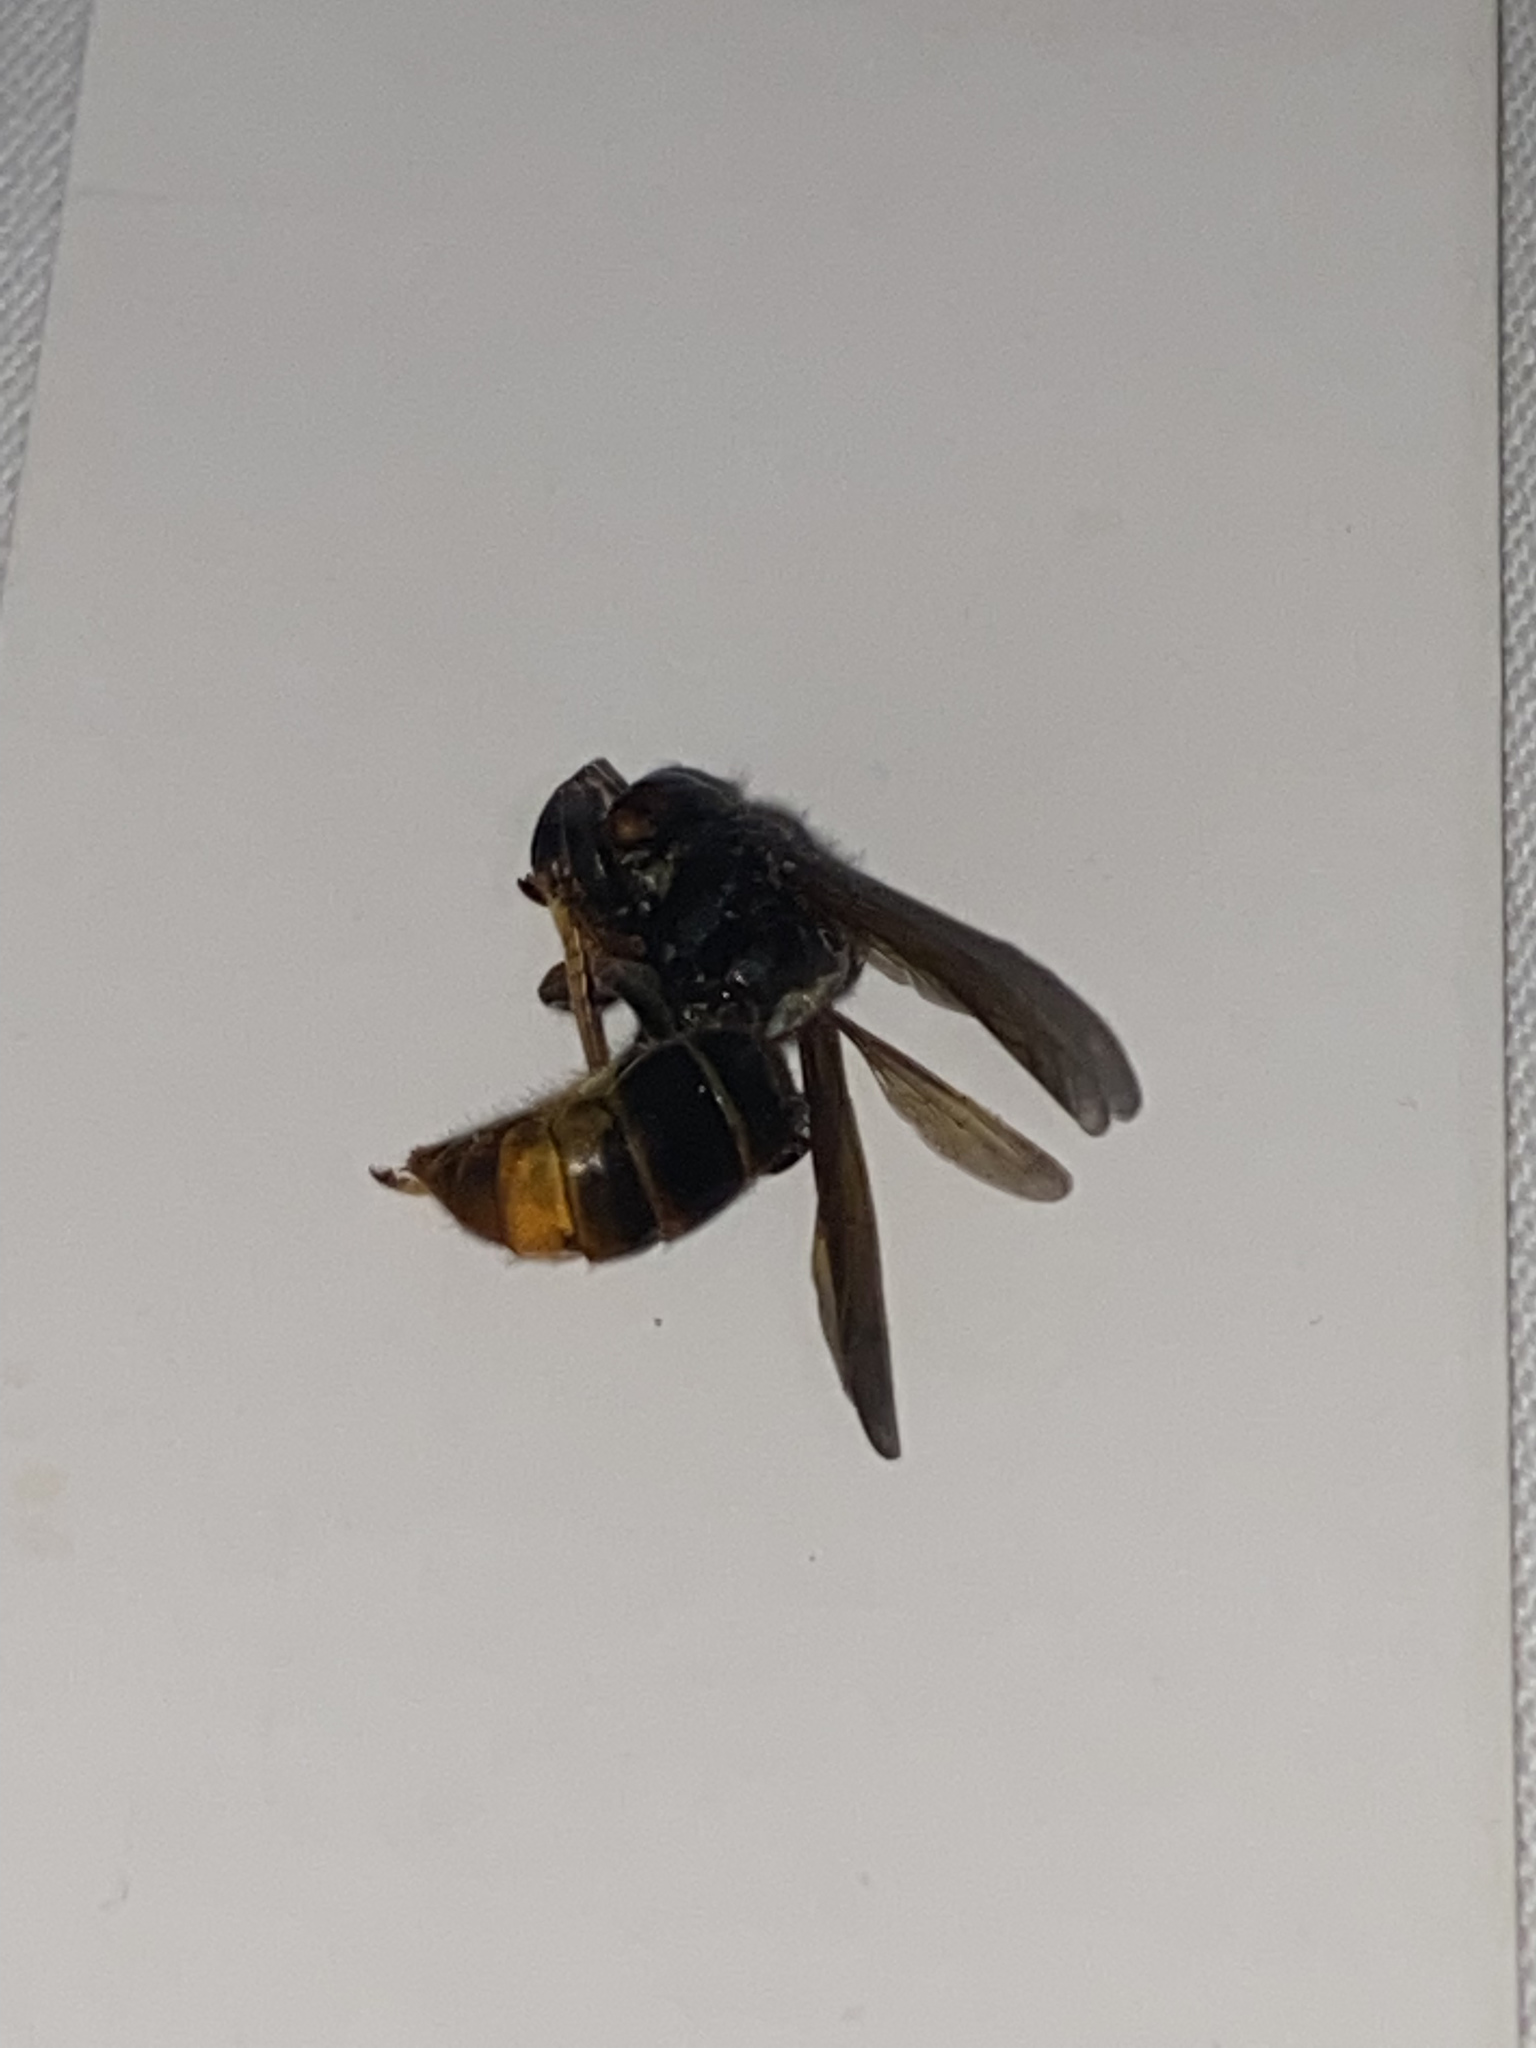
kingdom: Animalia
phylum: Arthropoda
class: Insecta
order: Hymenoptera
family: Vespidae
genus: Vespa
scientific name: Vespa velutina
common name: Asian hornet
